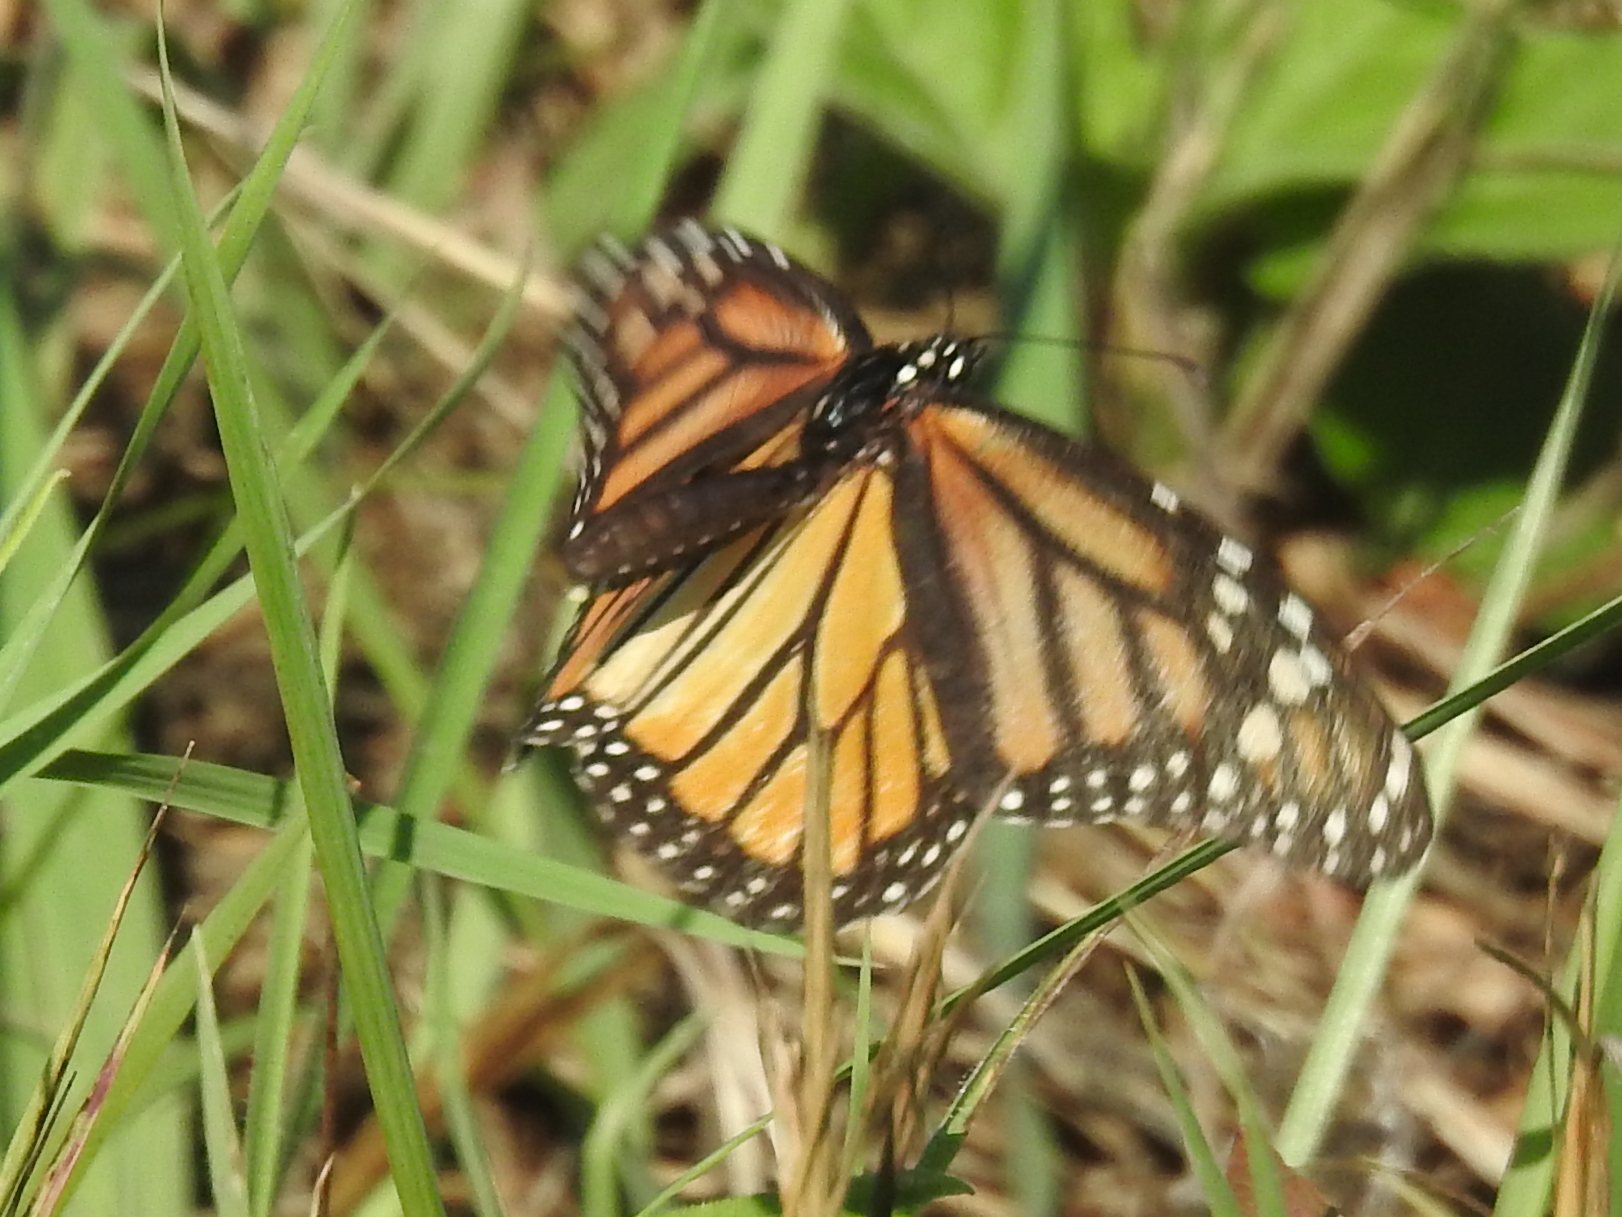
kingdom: Animalia
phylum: Arthropoda
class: Insecta
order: Lepidoptera
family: Nymphalidae
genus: Danaus
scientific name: Danaus plexippus
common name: Monarch
